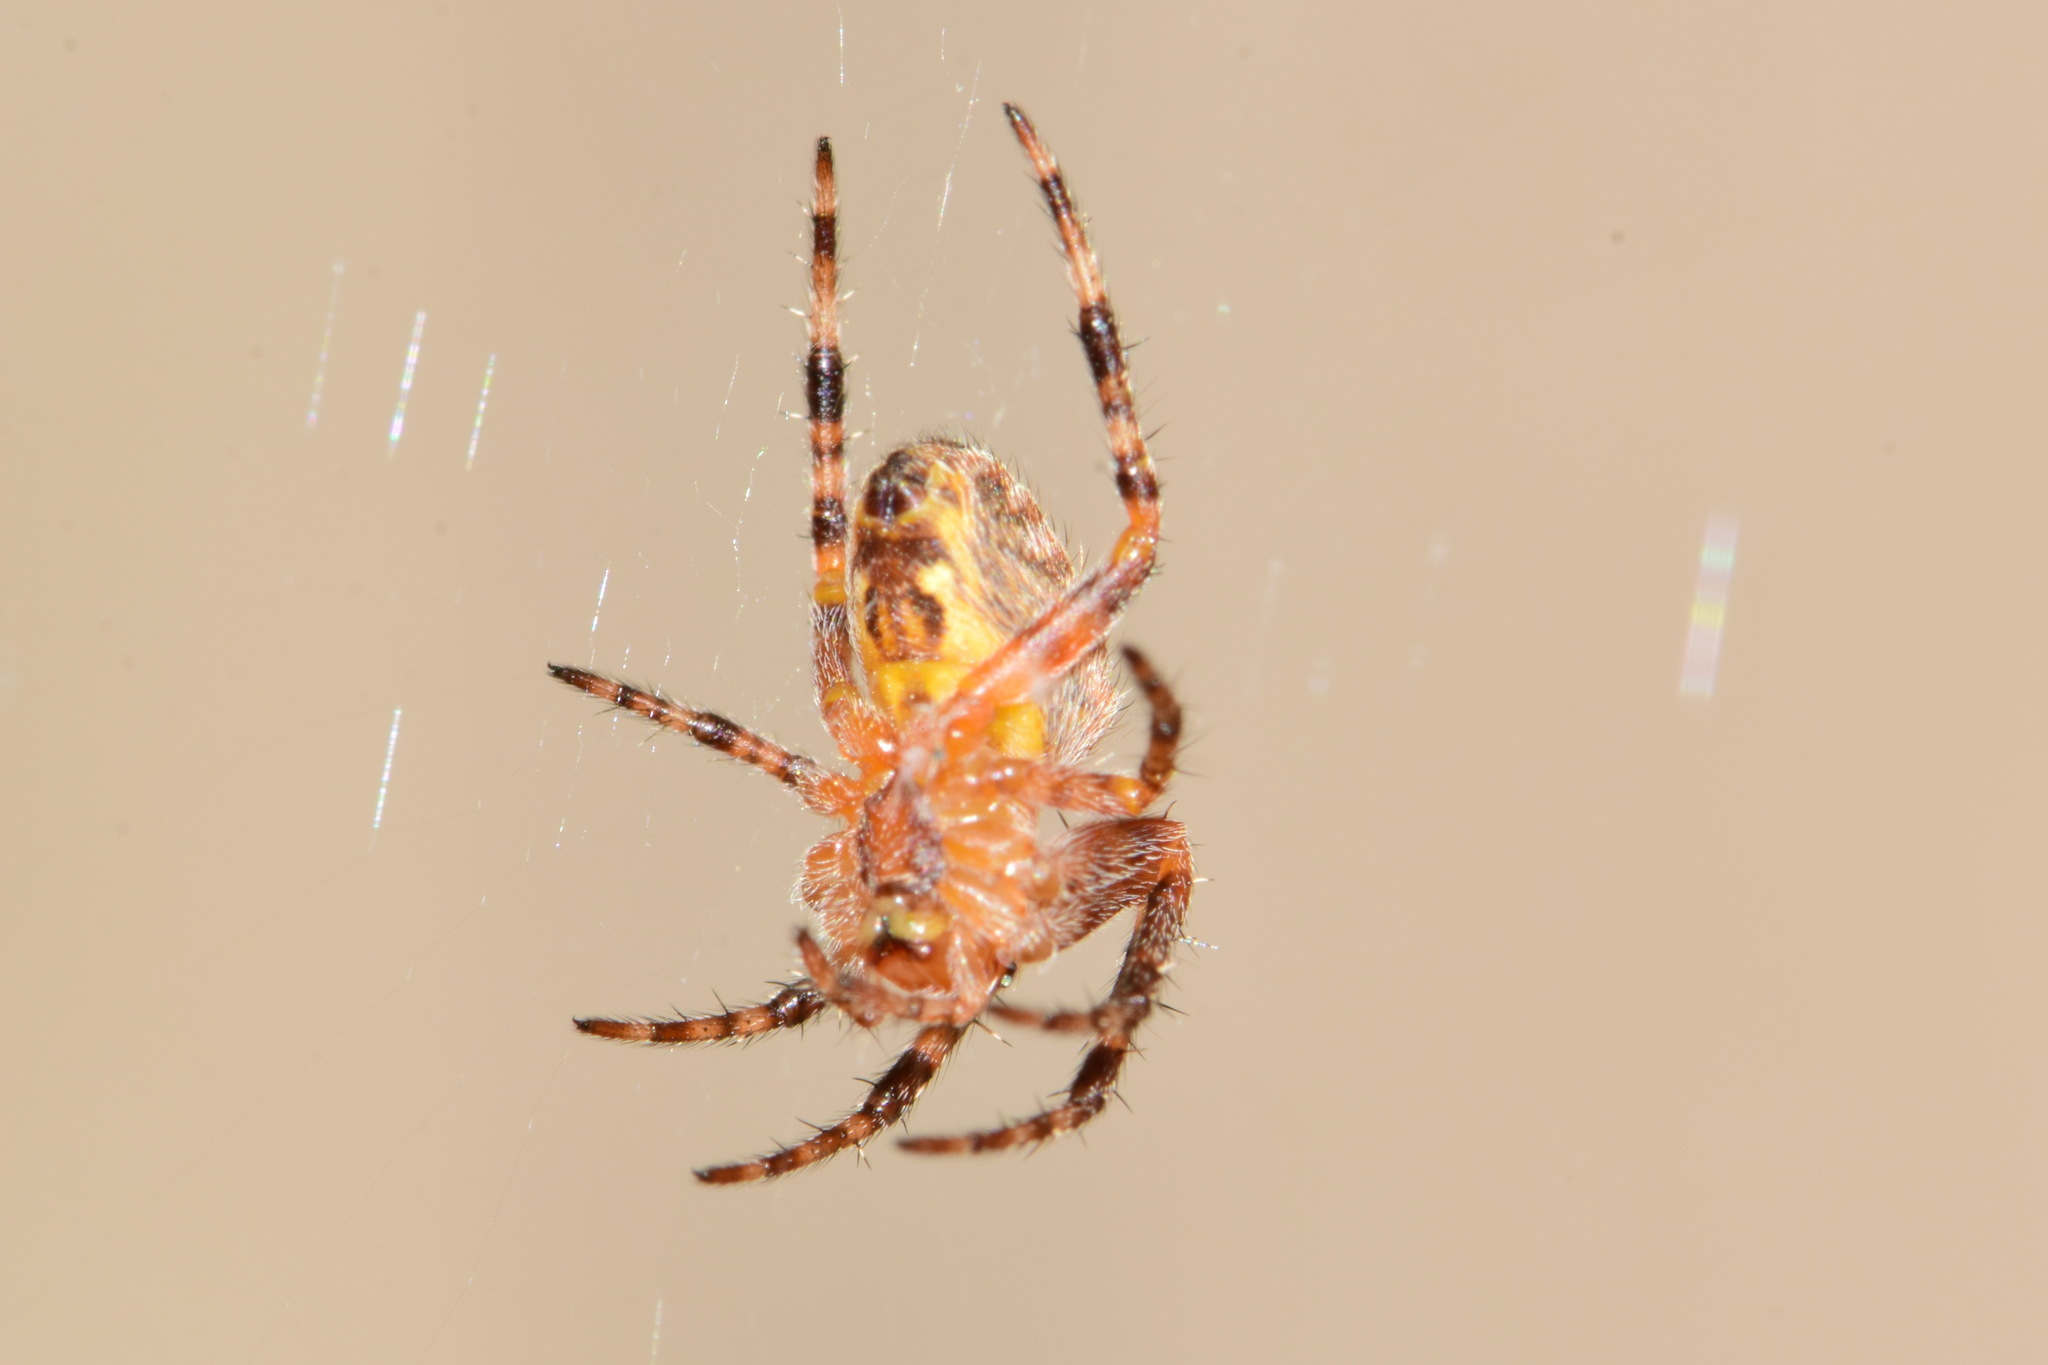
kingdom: Animalia
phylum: Arthropoda
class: Arachnida
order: Araneae
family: Araneidae
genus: Araneus
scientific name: Araneus diadematus
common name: Cross orbweaver
